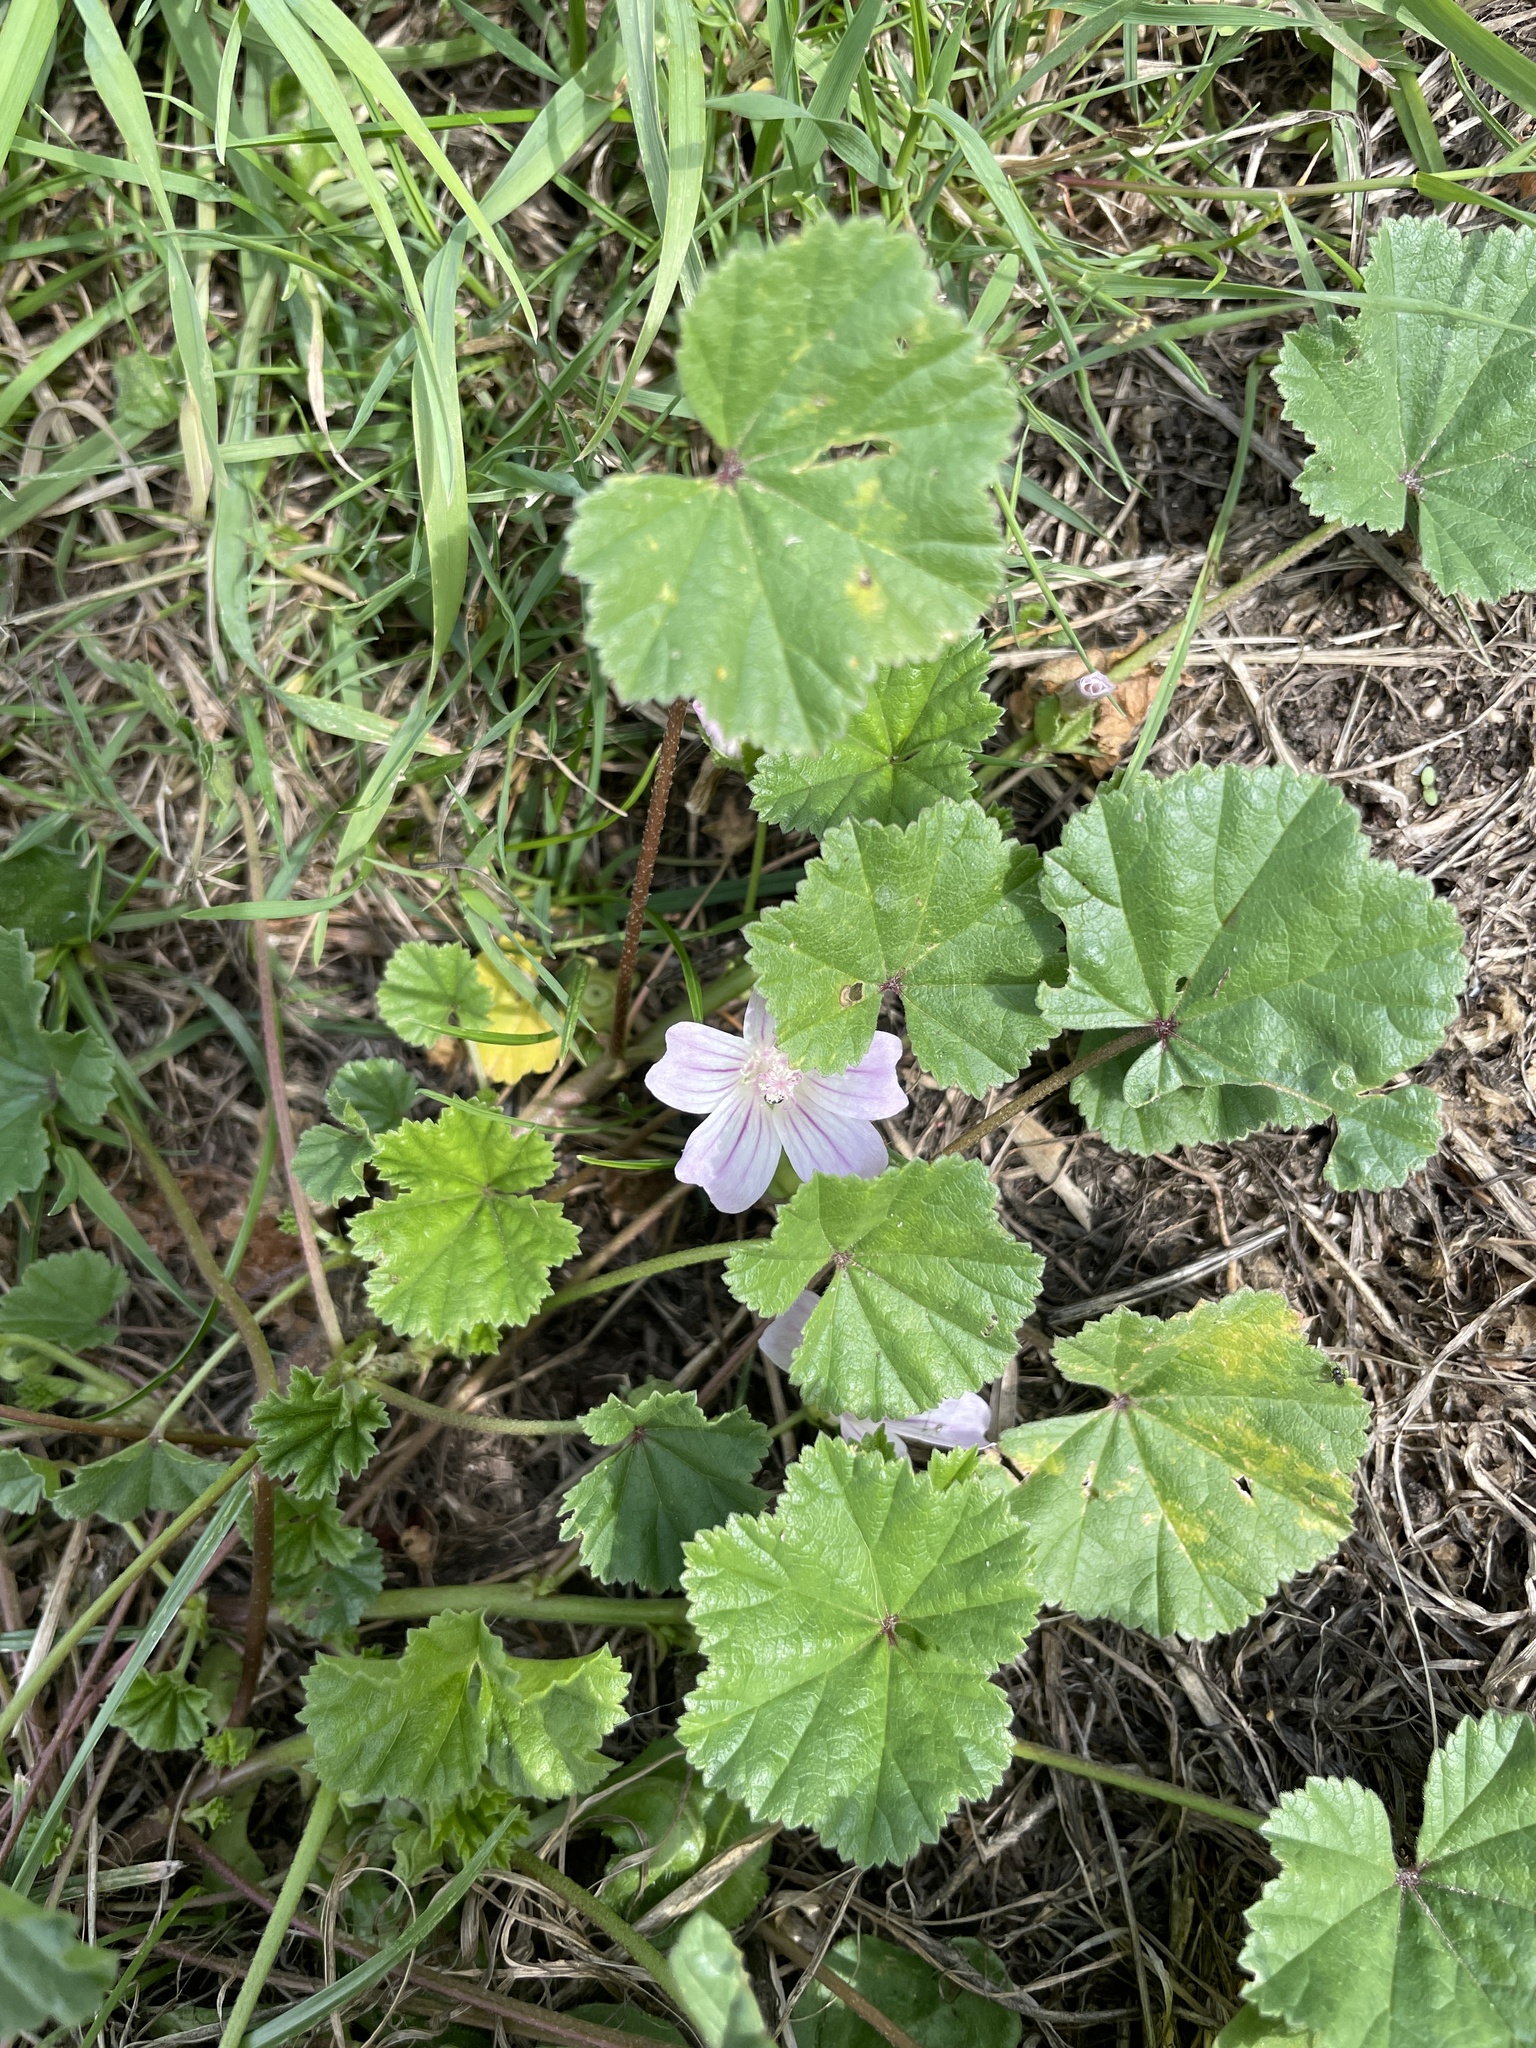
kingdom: Plantae
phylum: Tracheophyta
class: Magnoliopsida
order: Malvales
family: Malvaceae
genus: Malva
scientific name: Malva neglecta
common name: Common mallow
